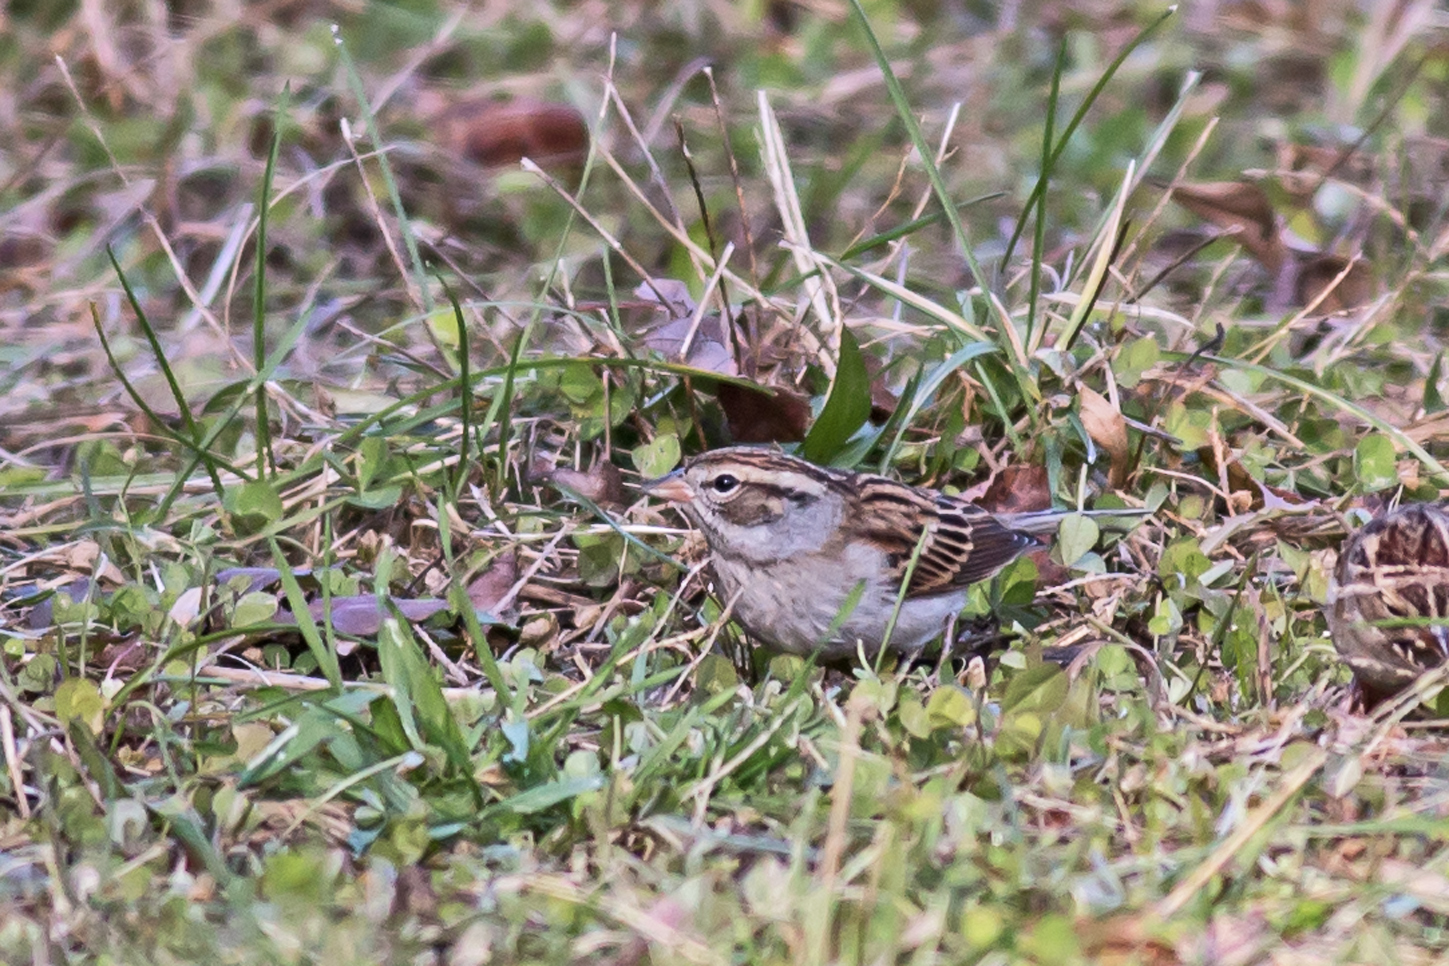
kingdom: Animalia
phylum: Chordata
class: Aves
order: Passeriformes
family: Passerellidae
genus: Spizella
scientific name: Spizella passerina
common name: Chipping sparrow
